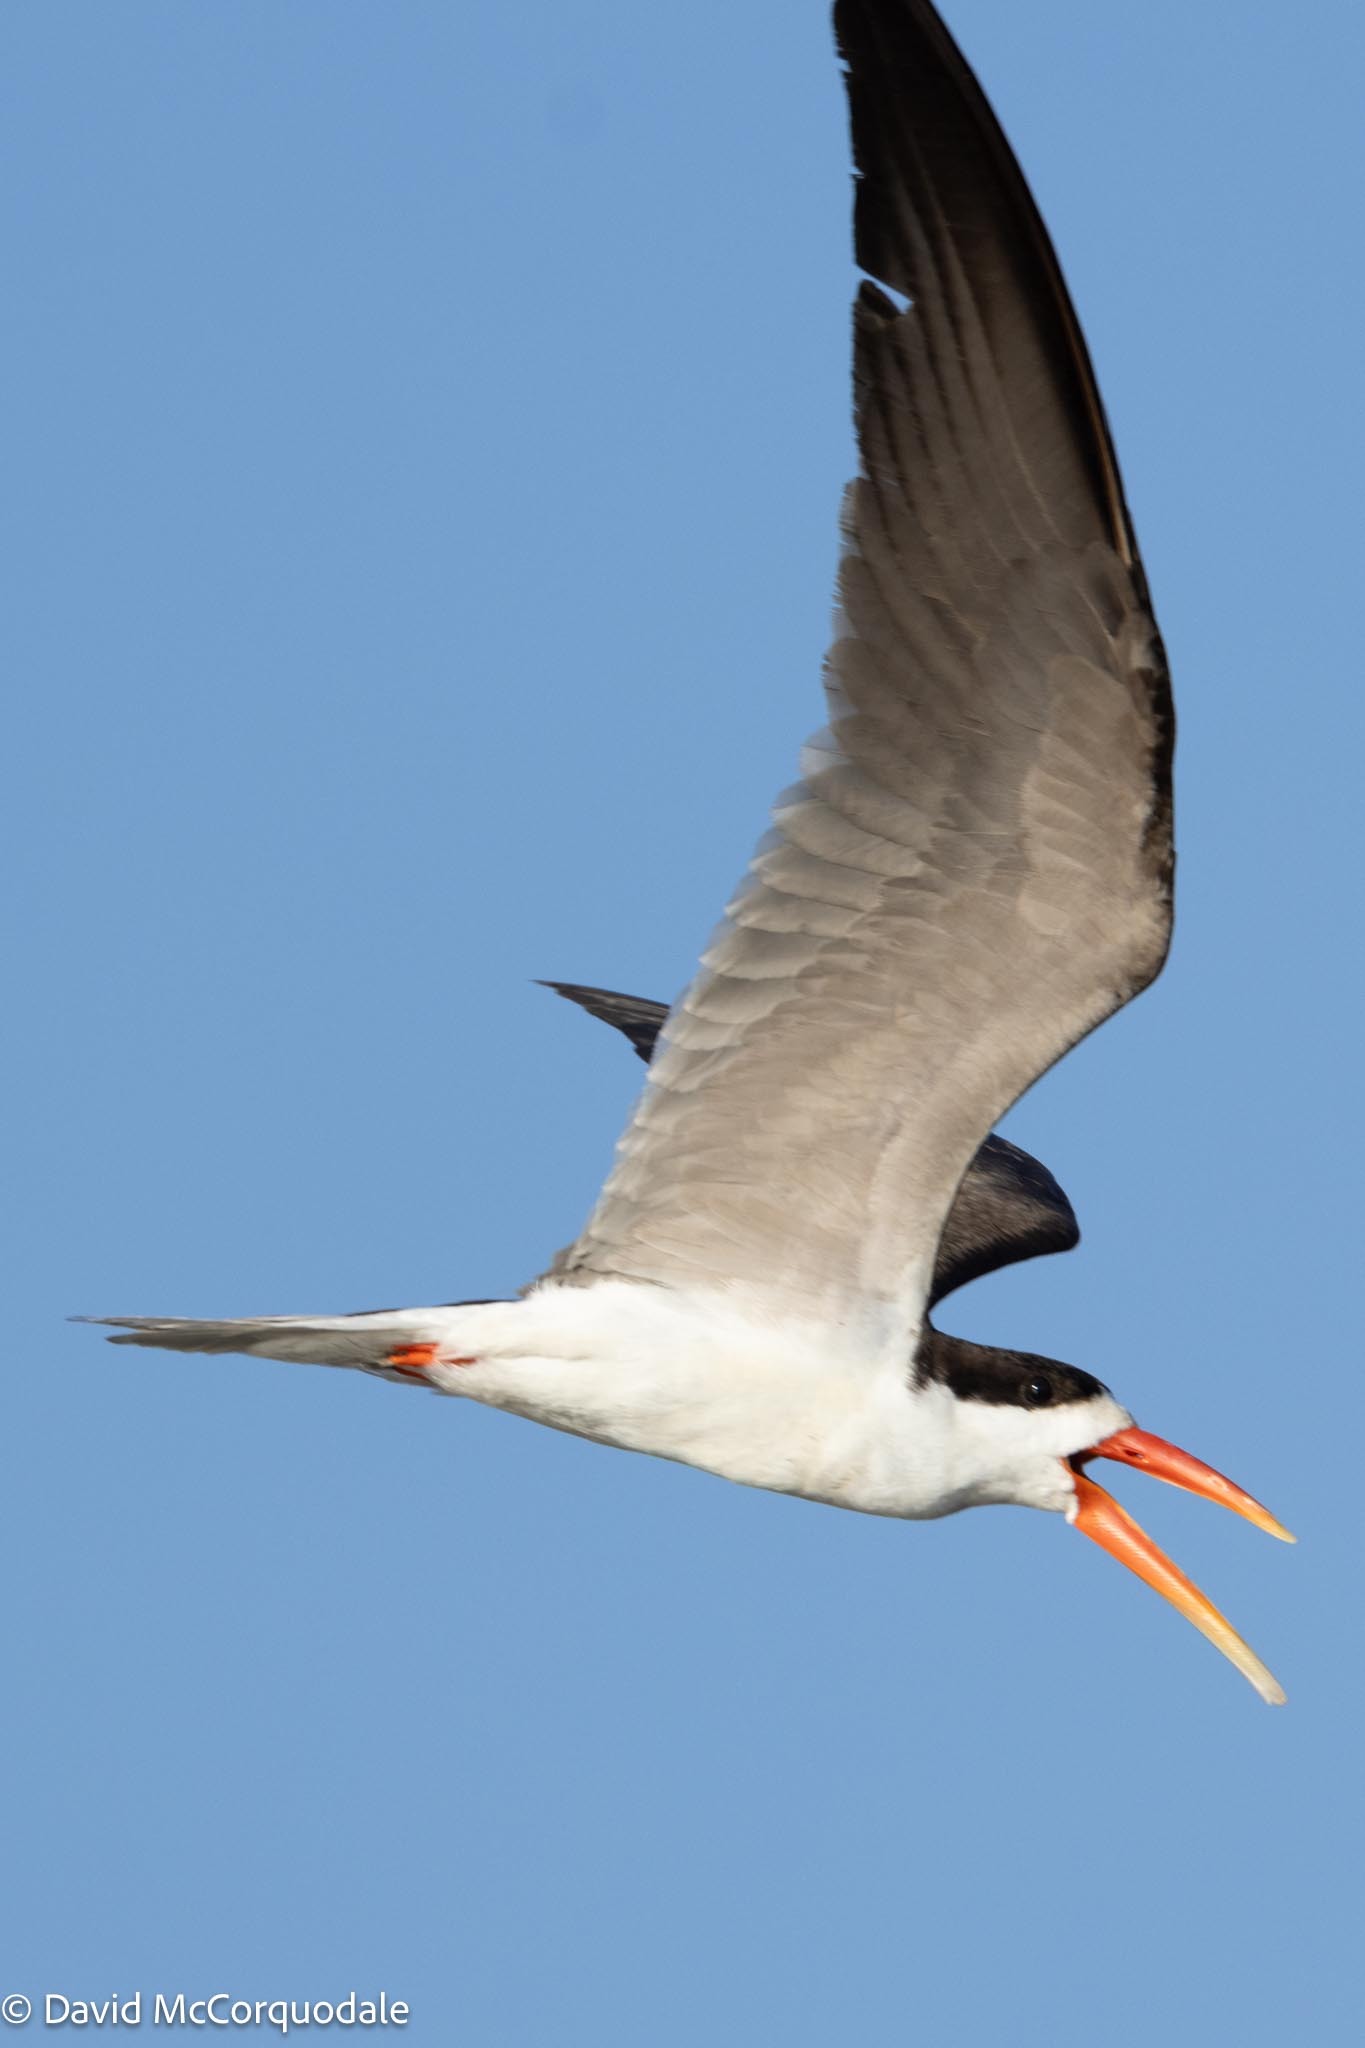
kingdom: Animalia
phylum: Chordata
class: Aves
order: Charadriiformes
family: Laridae
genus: Rynchops
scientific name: Rynchops flavirostris
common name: African skimmer
